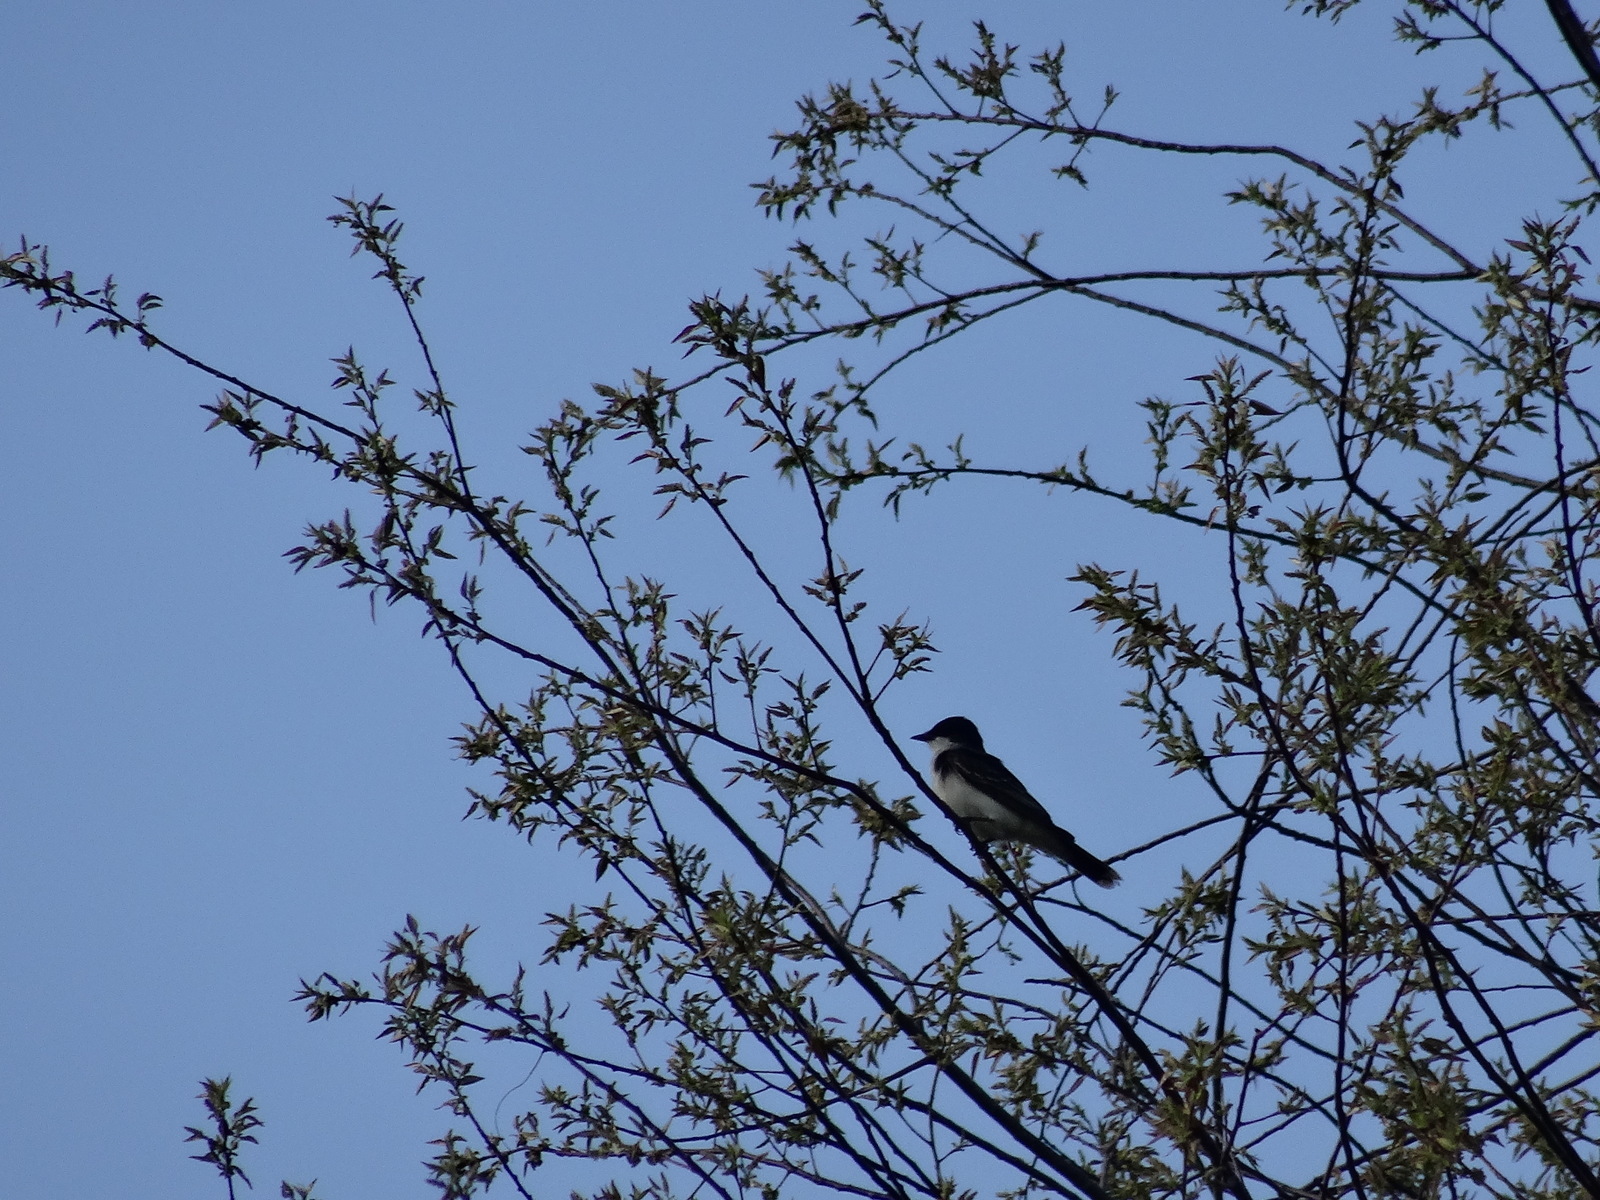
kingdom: Animalia
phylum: Chordata
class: Aves
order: Passeriformes
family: Tyrannidae
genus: Tyrannus
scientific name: Tyrannus tyrannus
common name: Eastern kingbird
